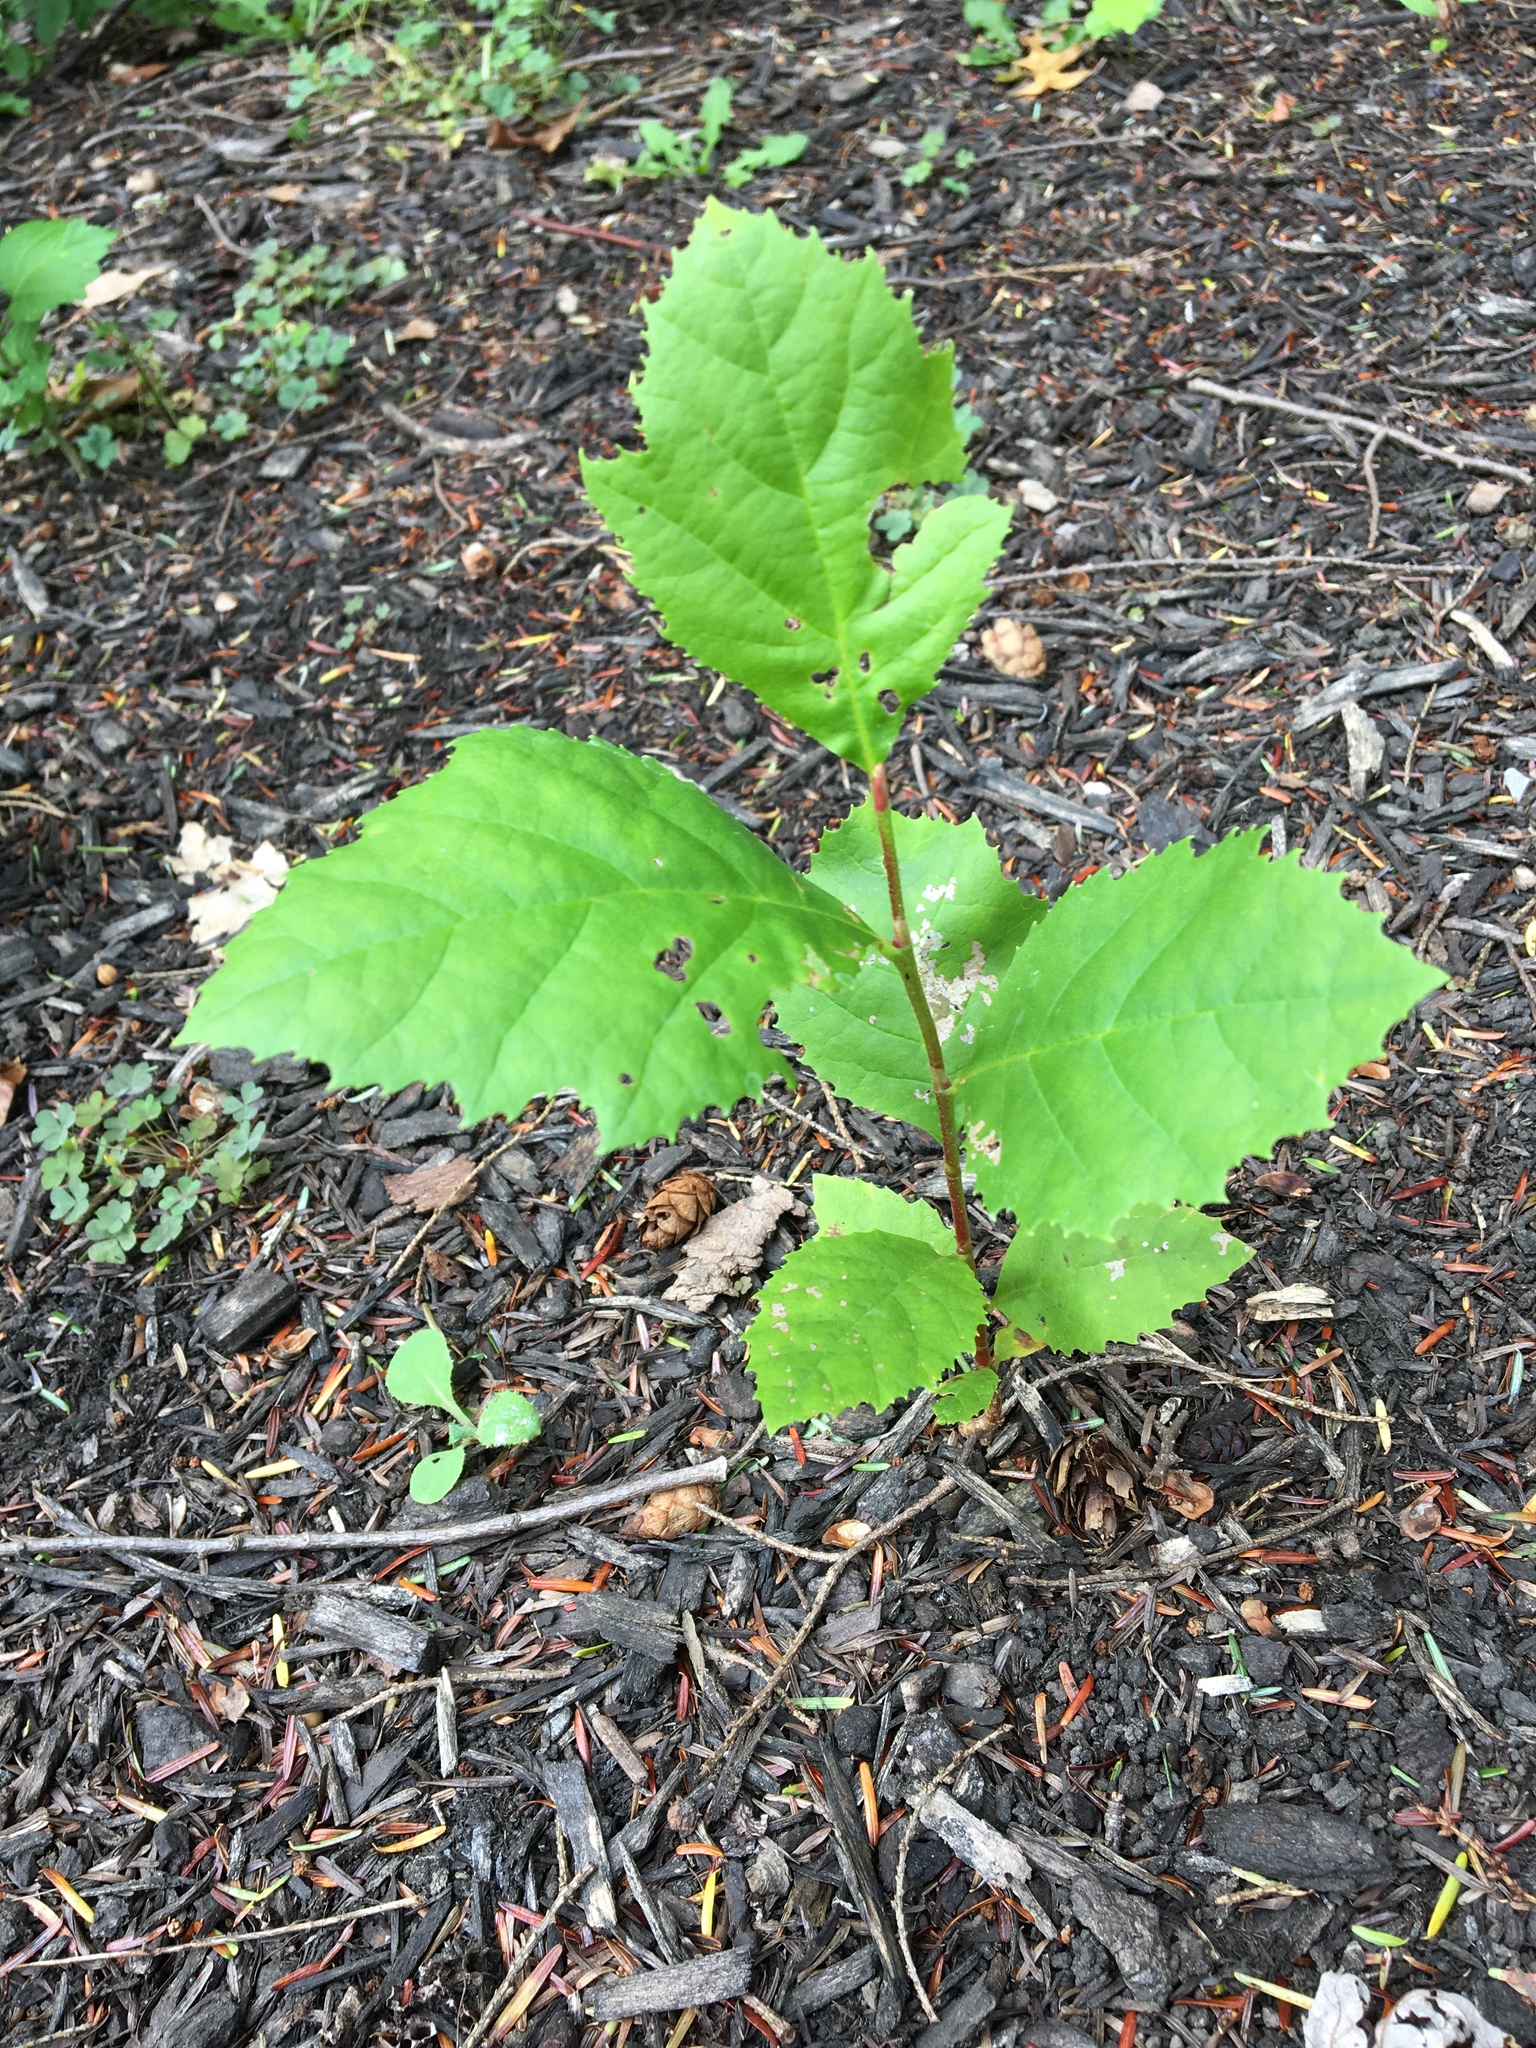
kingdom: Plantae
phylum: Tracheophyta
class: Magnoliopsida
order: Proteales
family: Platanaceae
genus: Platanus
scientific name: Platanus occidentalis
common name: American sycamore
